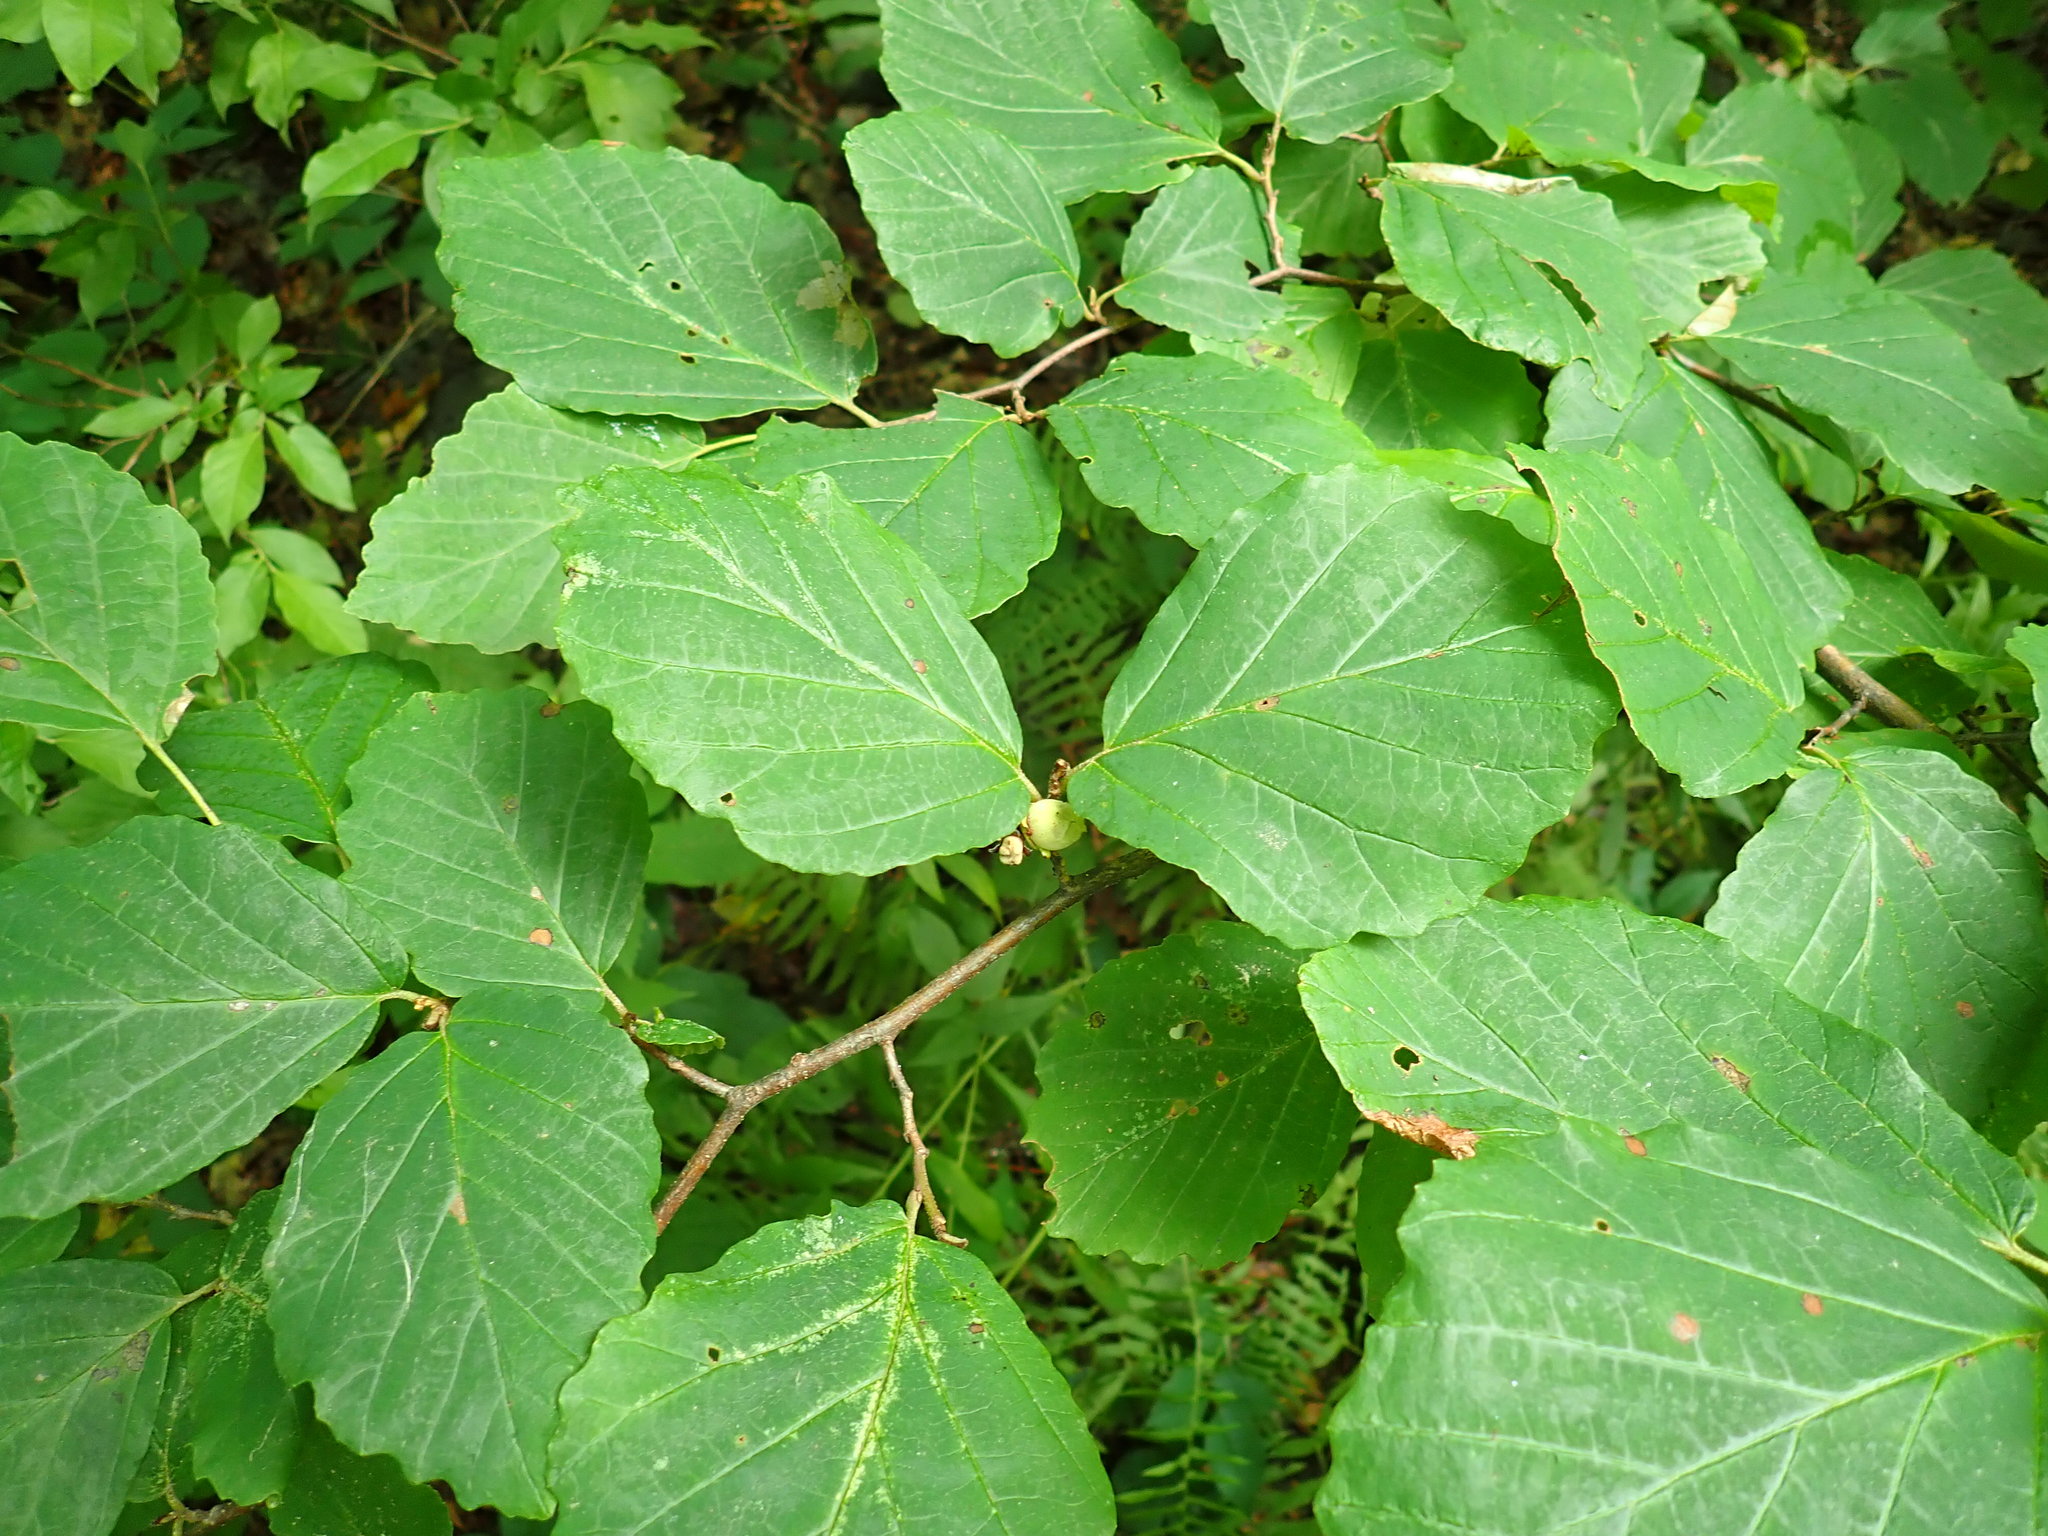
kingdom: Plantae
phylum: Tracheophyta
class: Magnoliopsida
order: Saxifragales
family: Hamamelidaceae
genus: Hamamelis
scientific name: Hamamelis virginiana
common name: Witch-hazel
